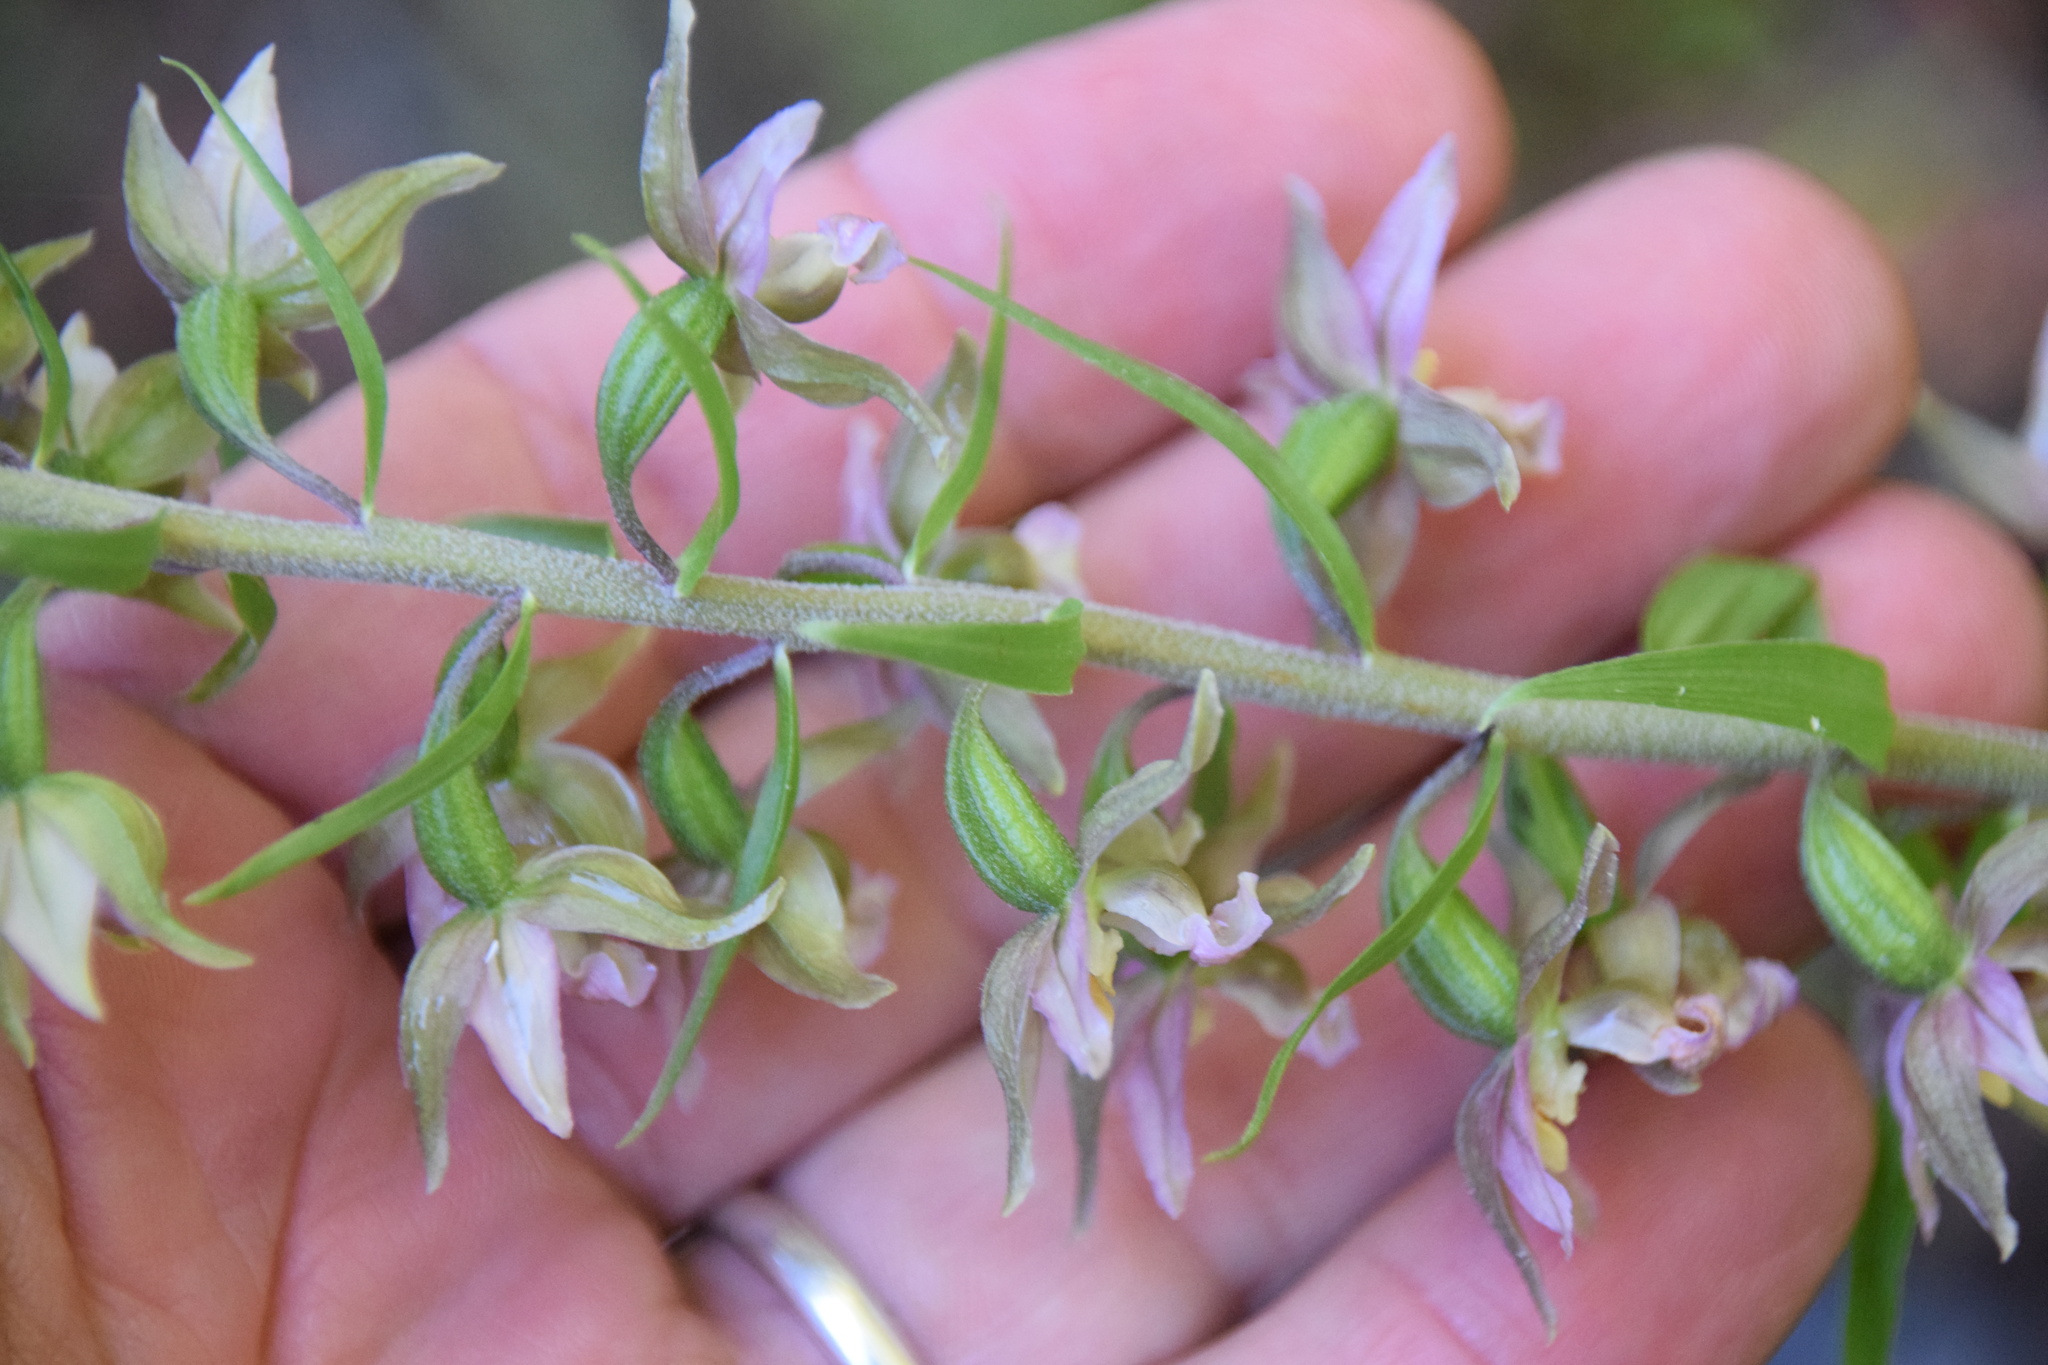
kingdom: Plantae
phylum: Tracheophyta
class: Liliopsida
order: Asparagales
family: Orchidaceae
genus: Epipactis
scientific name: Epipactis helleborine
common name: Broad-leaved helleborine
